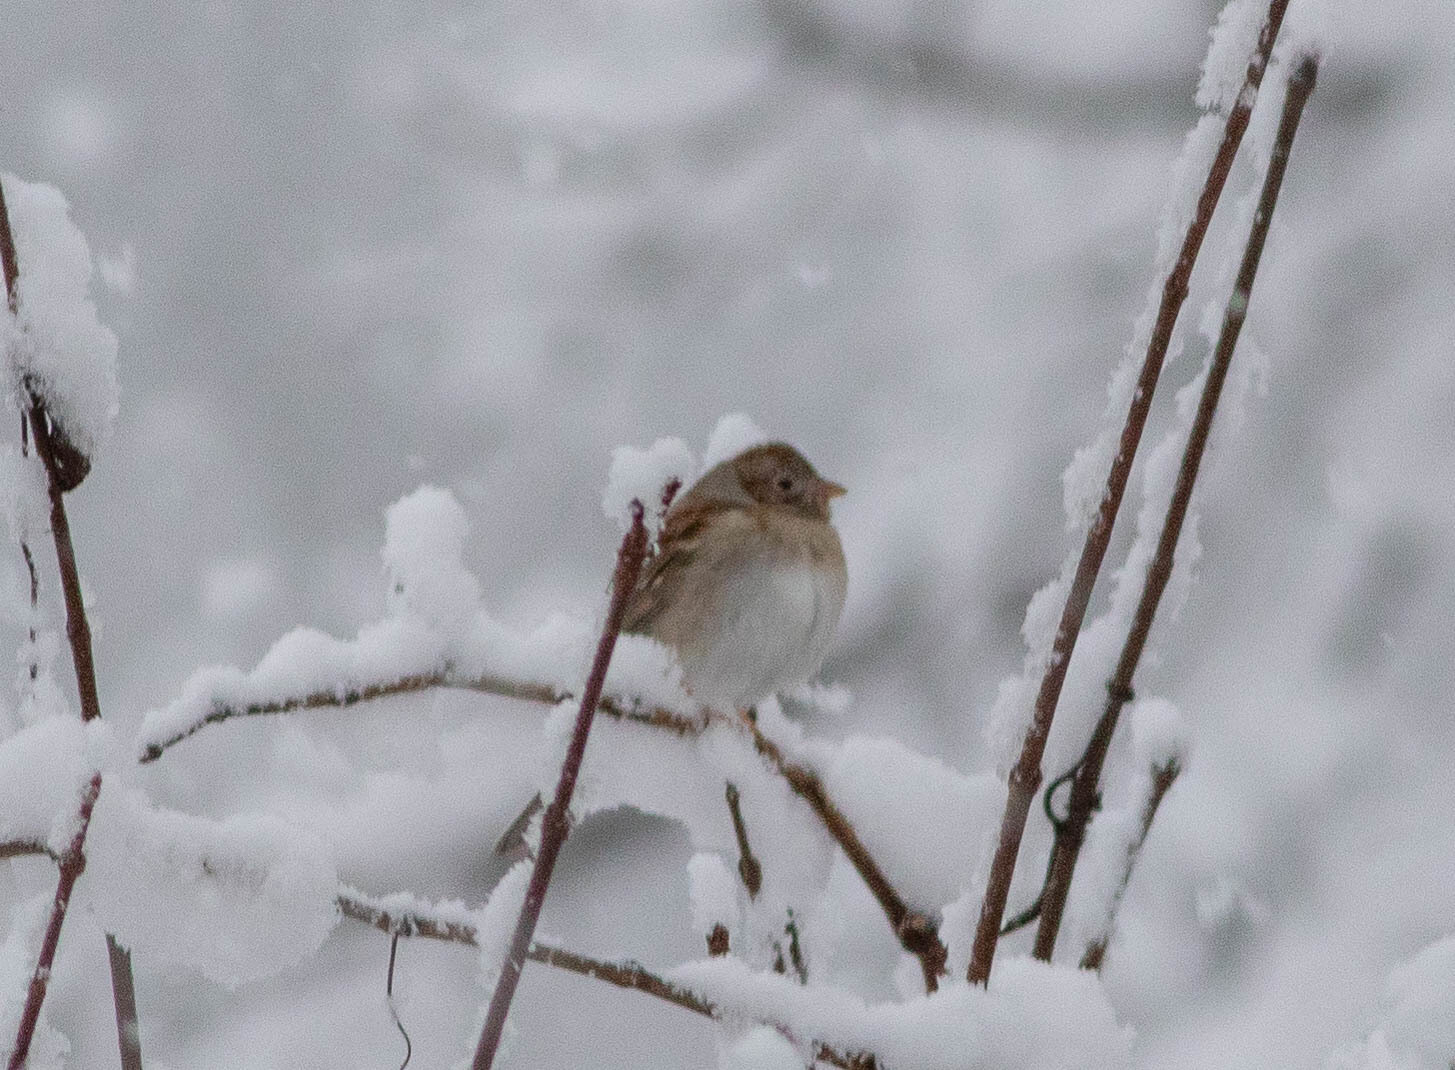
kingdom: Animalia
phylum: Chordata
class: Aves
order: Passeriformes
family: Passerellidae
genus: Spizella
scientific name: Spizella pusilla
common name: Field sparrow
